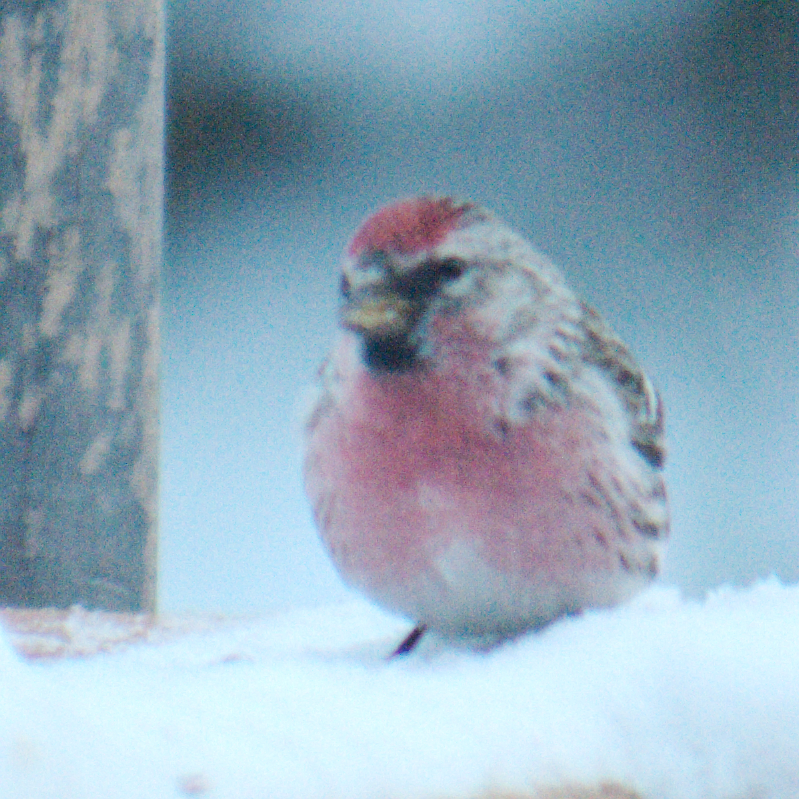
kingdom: Animalia
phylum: Chordata
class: Aves
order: Passeriformes
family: Fringillidae
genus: Acanthis
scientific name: Acanthis flammea
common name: Common redpoll
